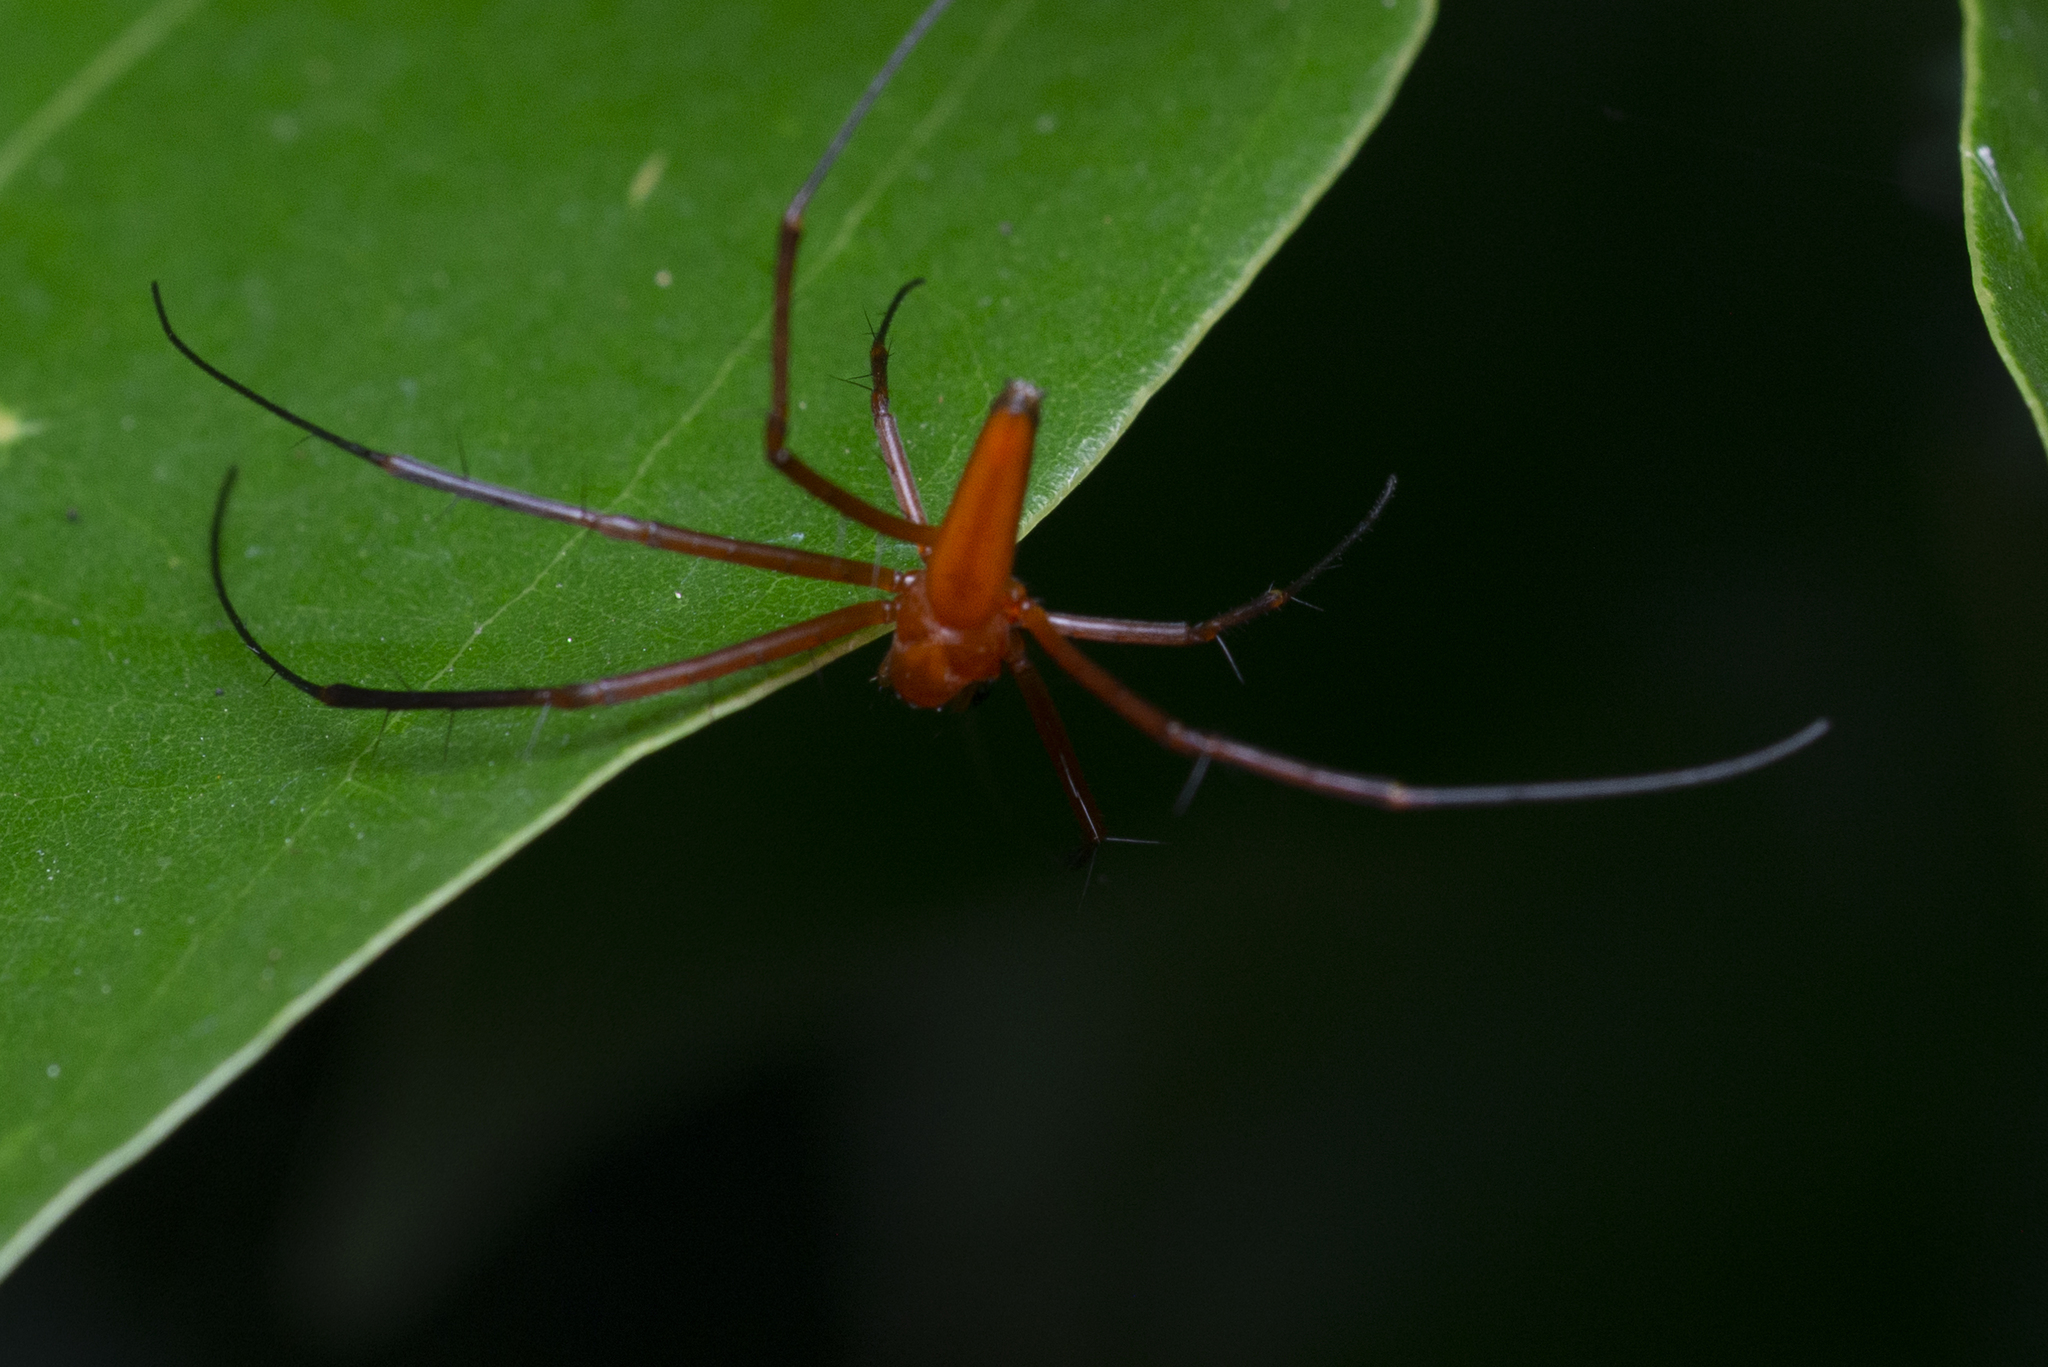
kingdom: Animalia
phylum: Arthropoda
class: Arachnida
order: Araneae
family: Araneidae
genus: Nephila
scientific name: Nephila pilipes
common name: Giant golden orb weaver
